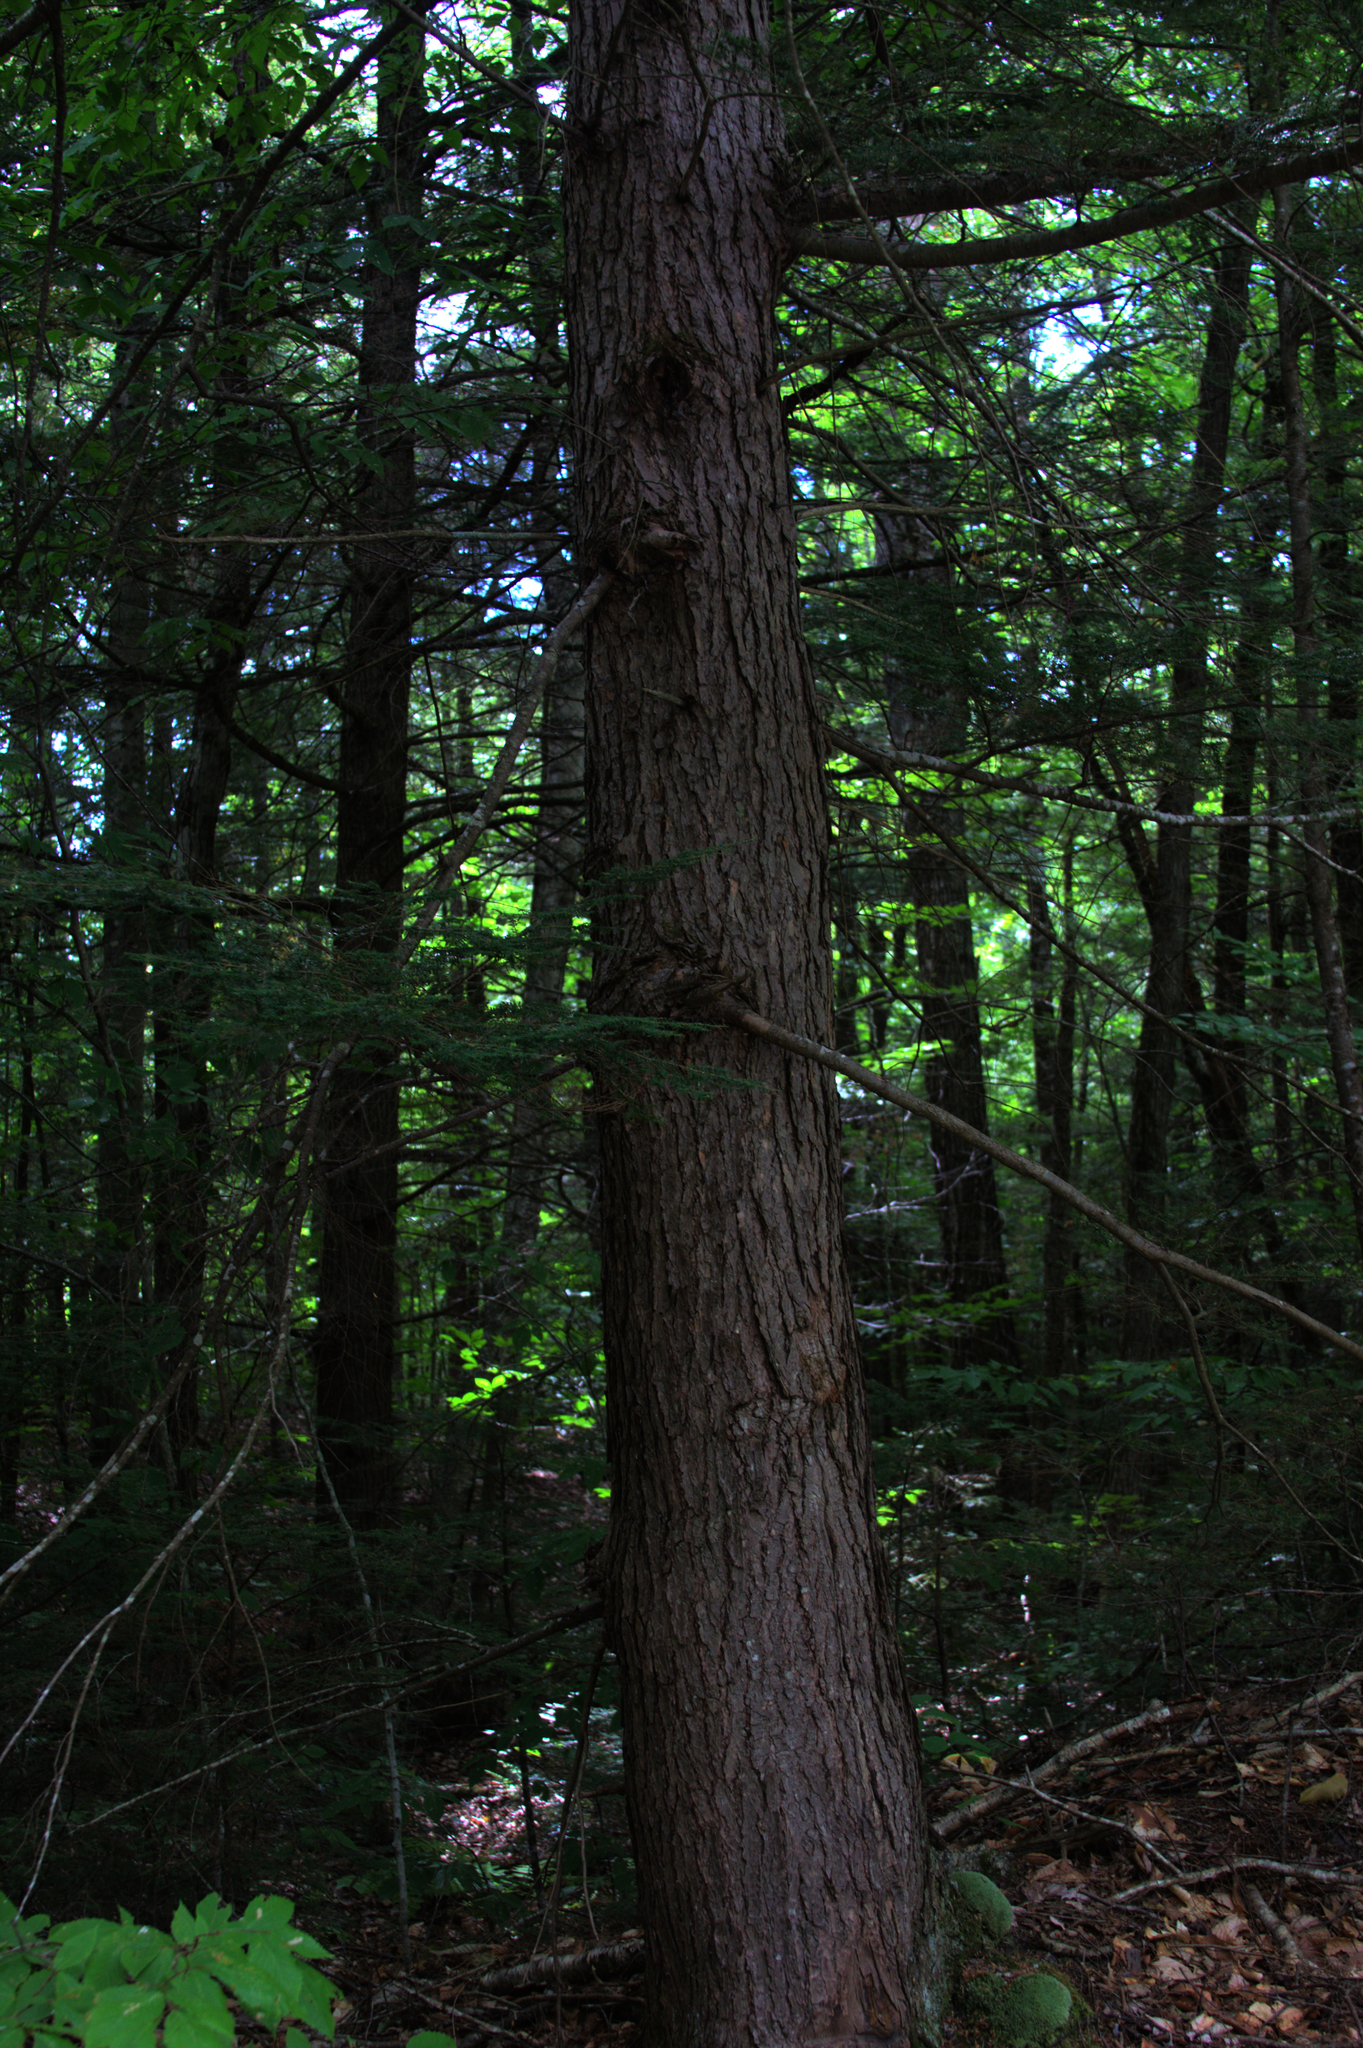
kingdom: Plantae
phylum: Tracheophyta
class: Pinopsida
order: Pinales
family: Pinaceae
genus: Tsuga
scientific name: Tsuga canadensis
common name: Eastern hemlock
